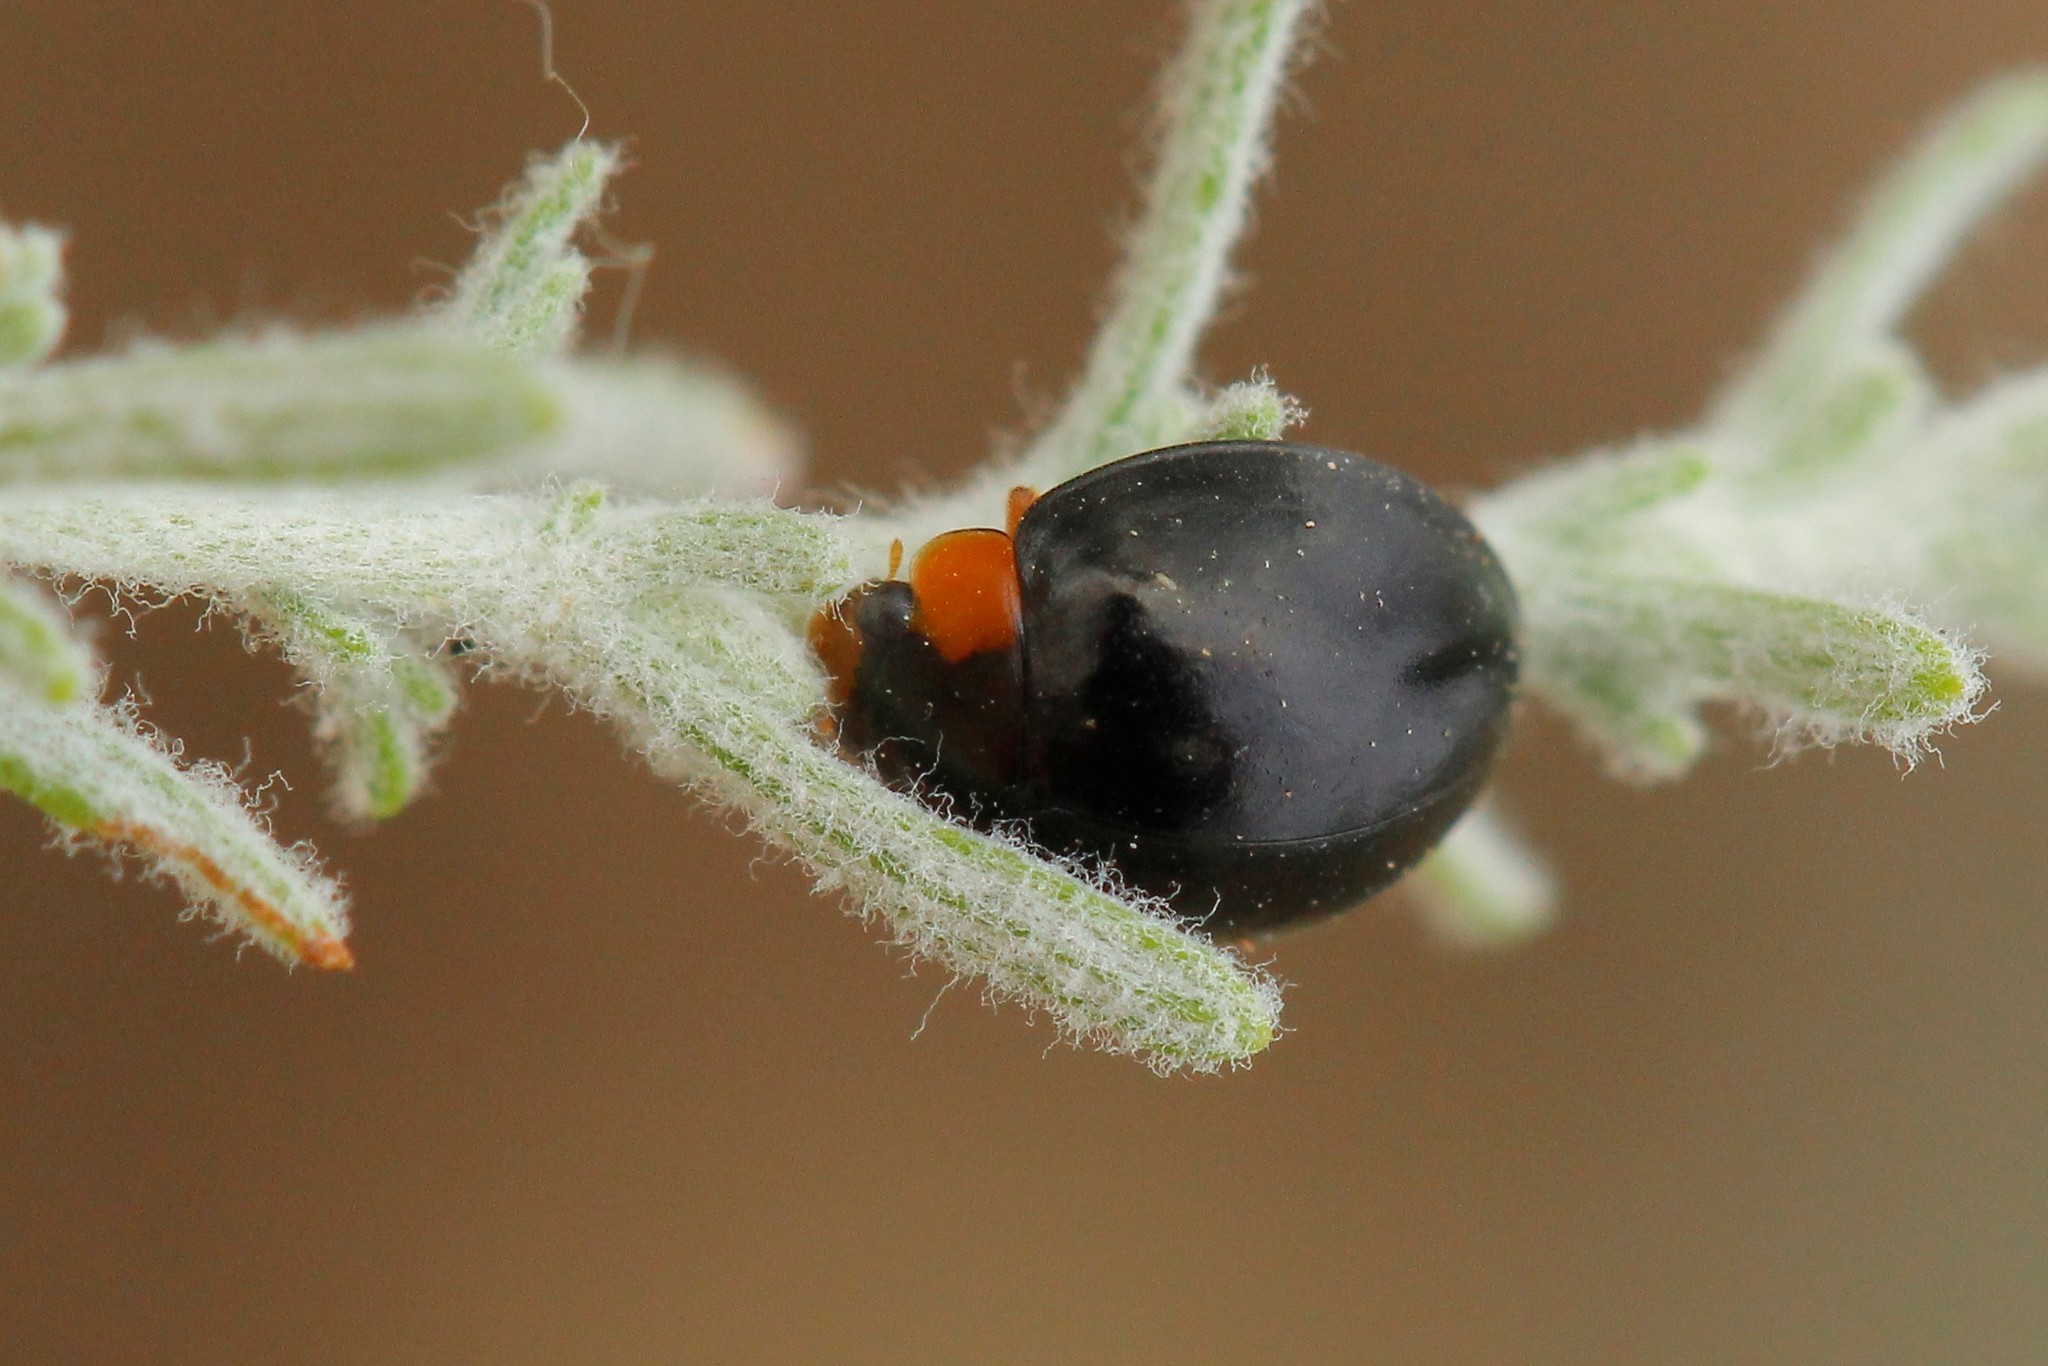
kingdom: Animalia
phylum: Arthropoda
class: Insecta
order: Coleoptera
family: Coccinellidae
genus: Parexochomus
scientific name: Parexochomus nigromaculatus
